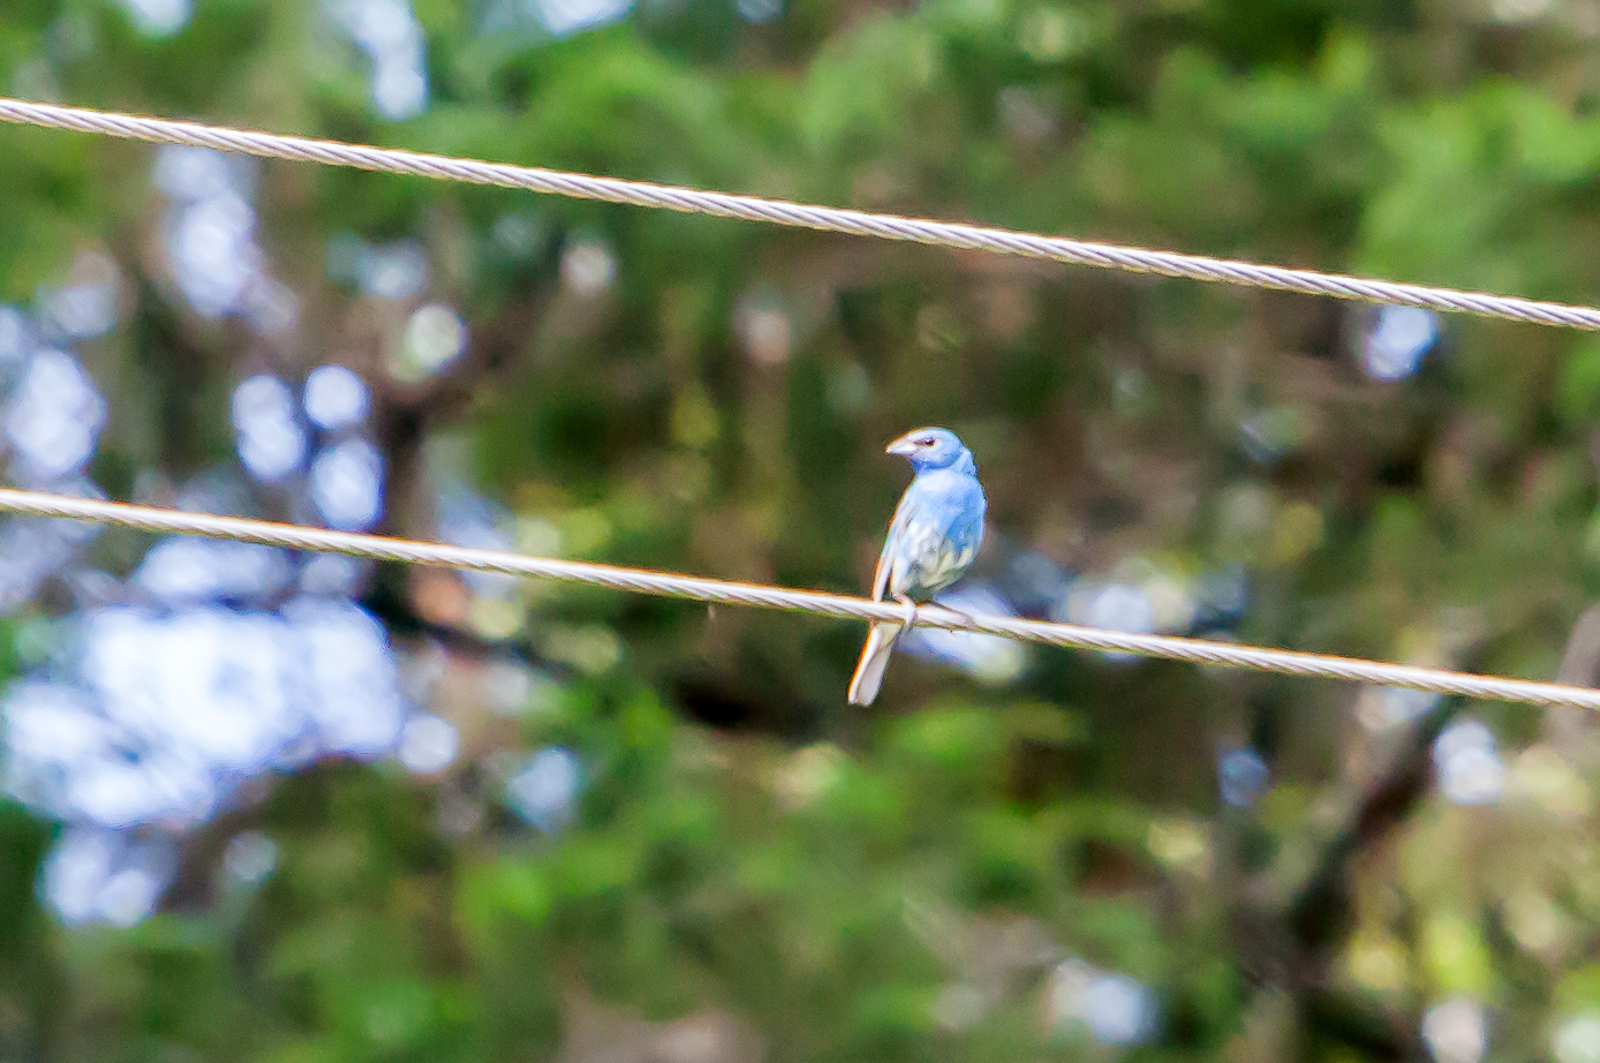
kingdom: Animalia
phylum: Chordata
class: Aves
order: Passeriformes
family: Cardinalidae
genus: Passerina
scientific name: Passerina cyanea
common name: Indigo bunting
